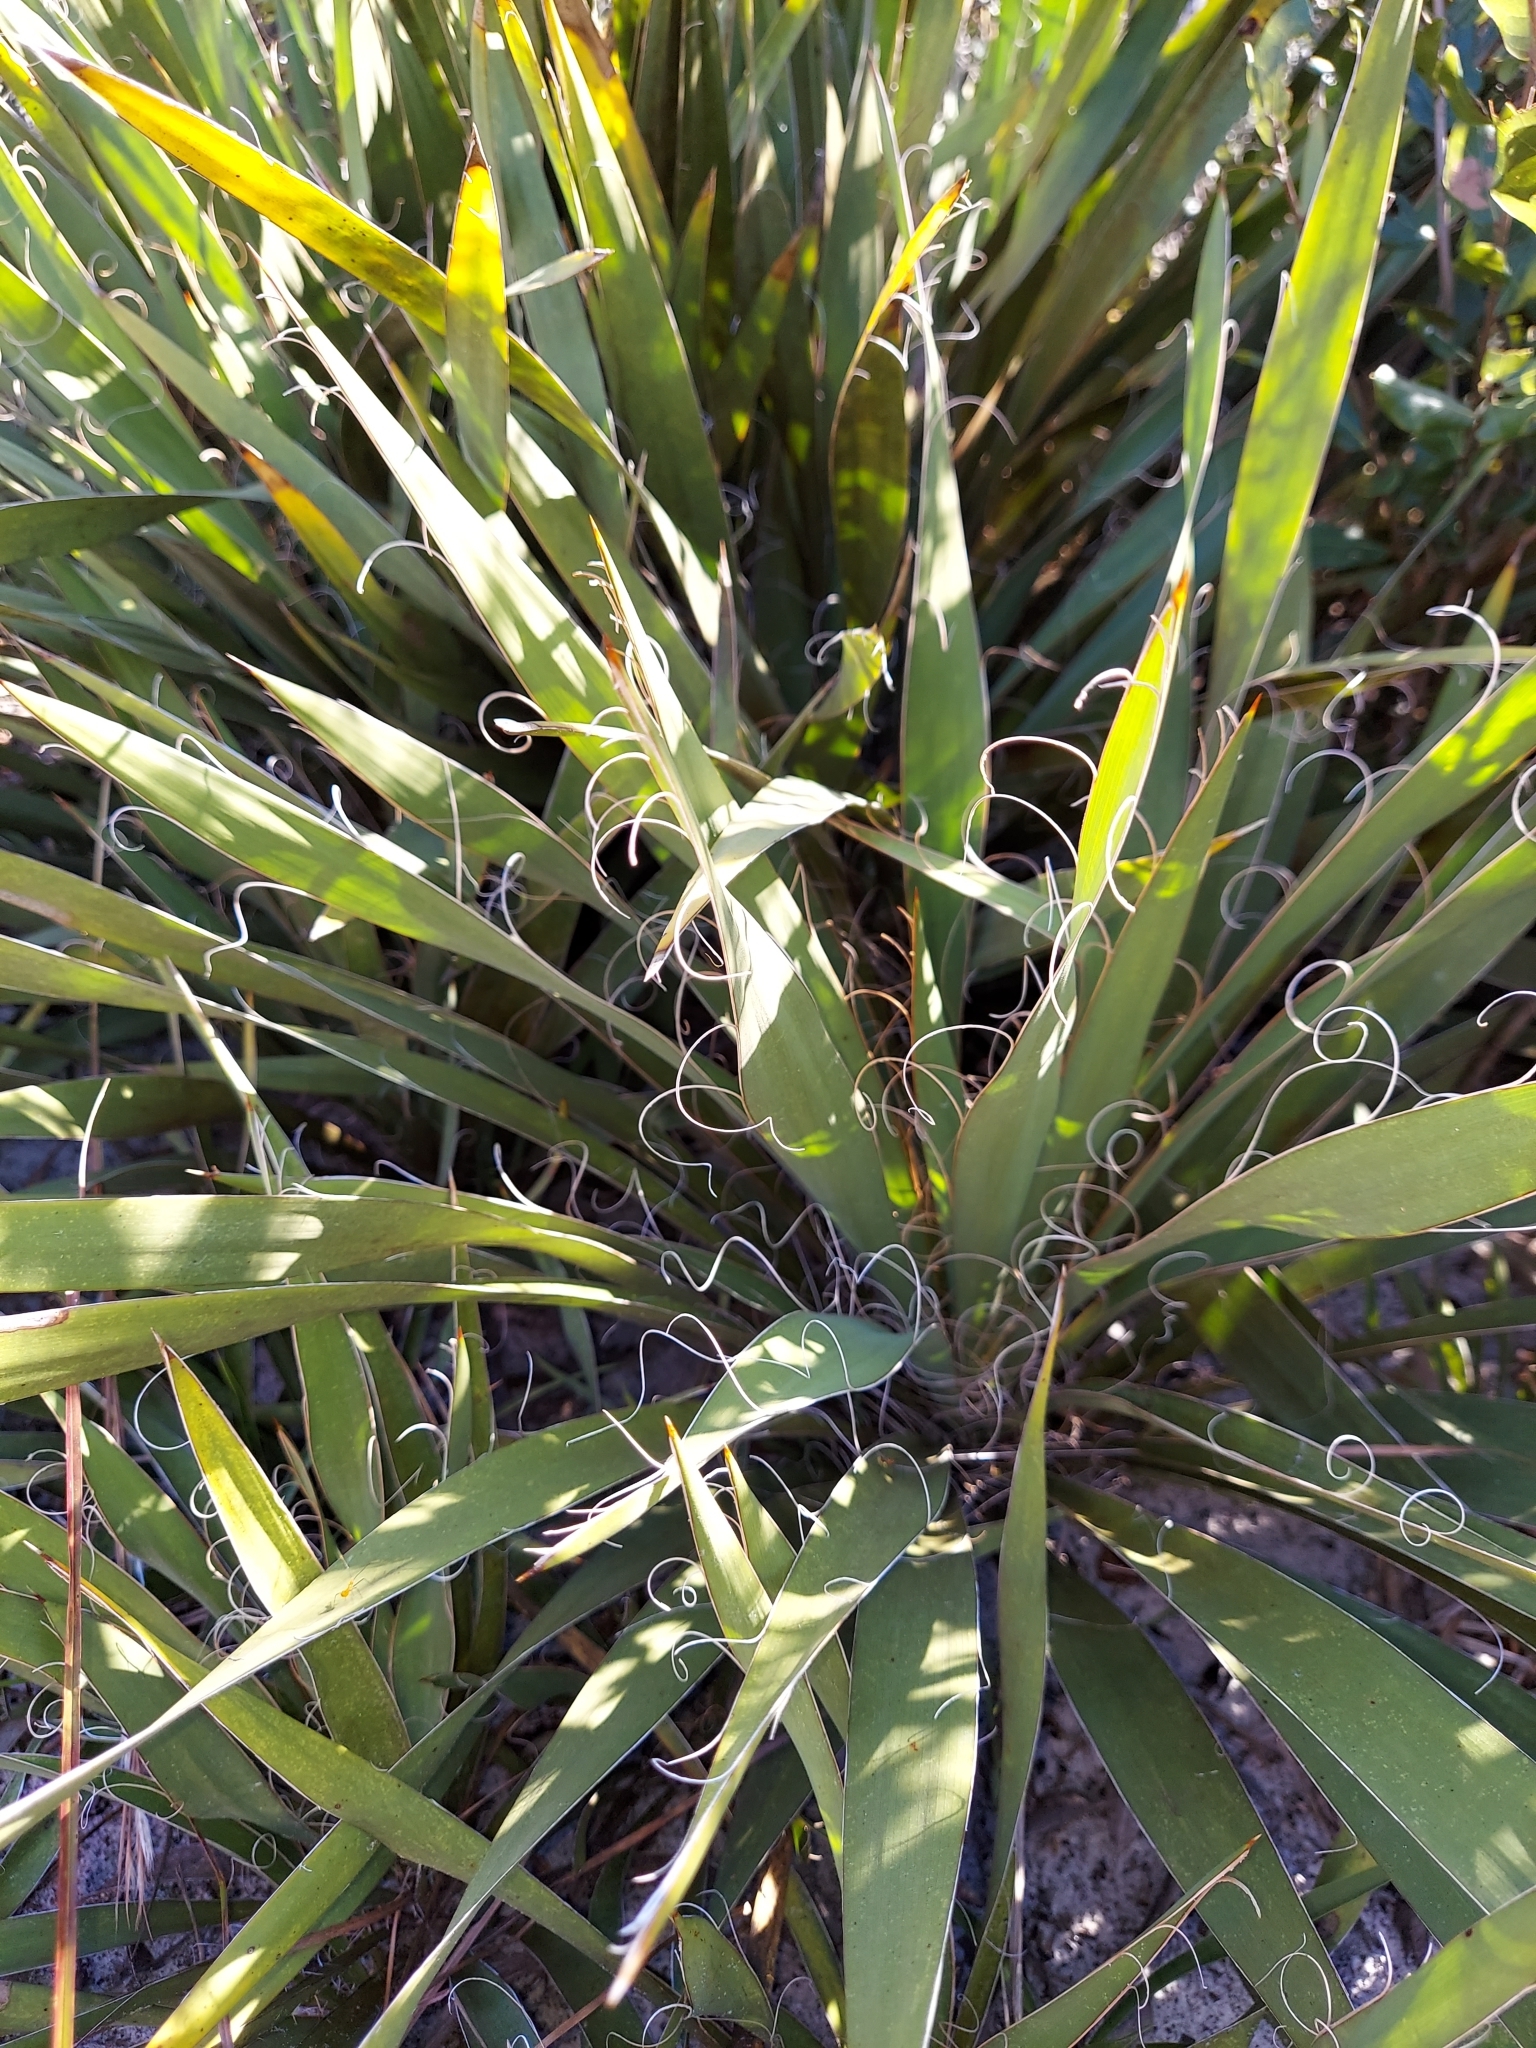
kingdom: Plantae
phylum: Tracheophyta
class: Liliopsida
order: Asparagales
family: Asparagaceae
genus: Yucca
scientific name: Yucca filamentosa
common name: Adam's-needle
